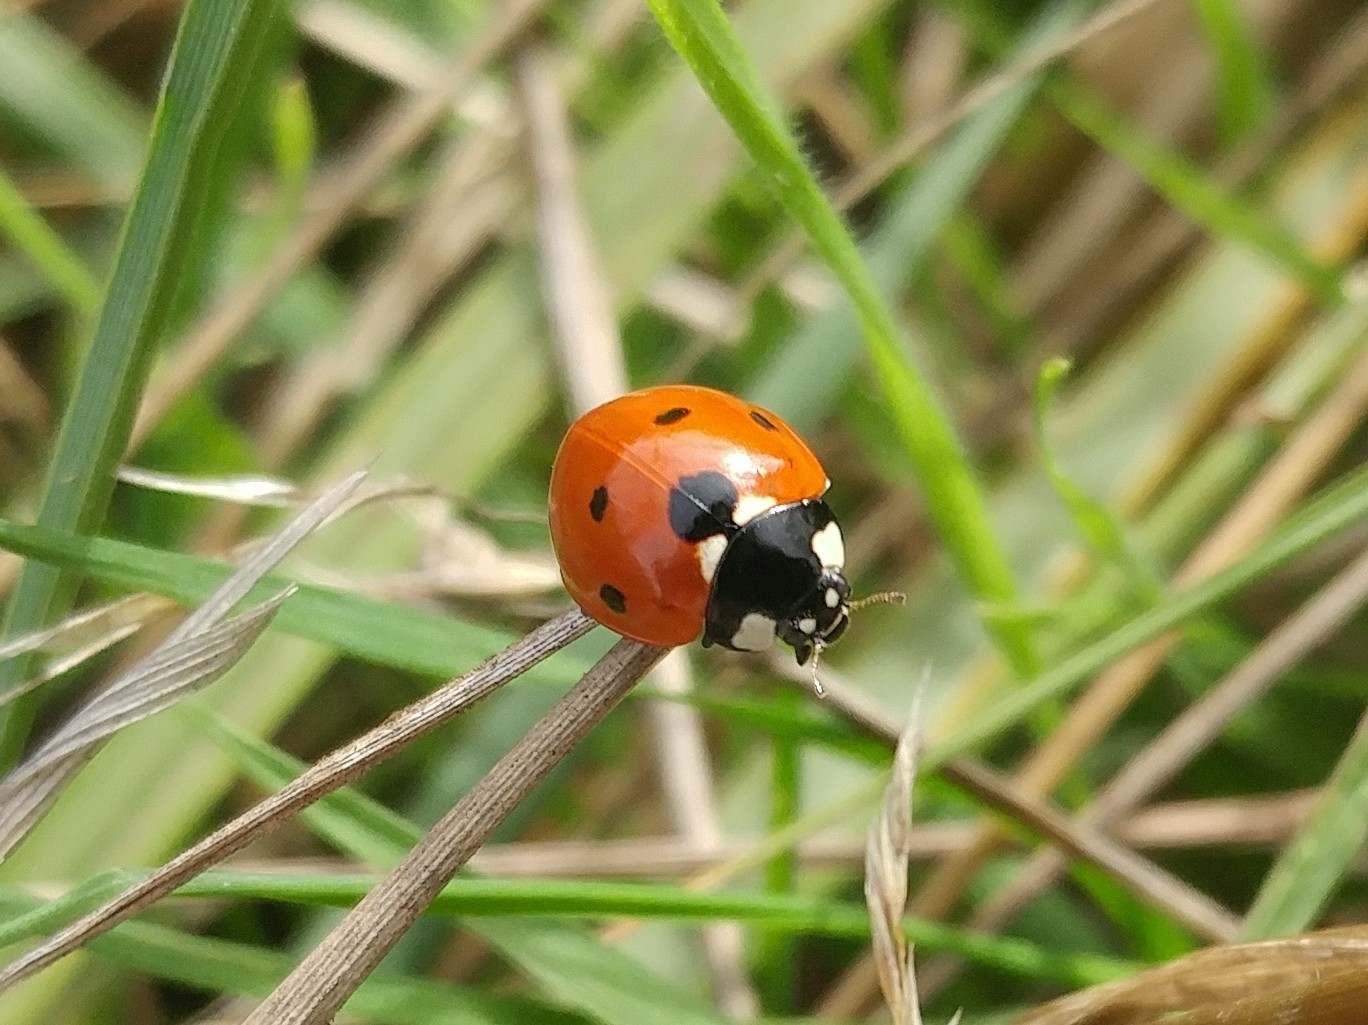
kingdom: Animalia
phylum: Arthropoda
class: Insecta
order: Coleoptera
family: Coccinellidae
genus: Coccinella
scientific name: Coccinella septempunctata
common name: Sevenspotted lady beetle
